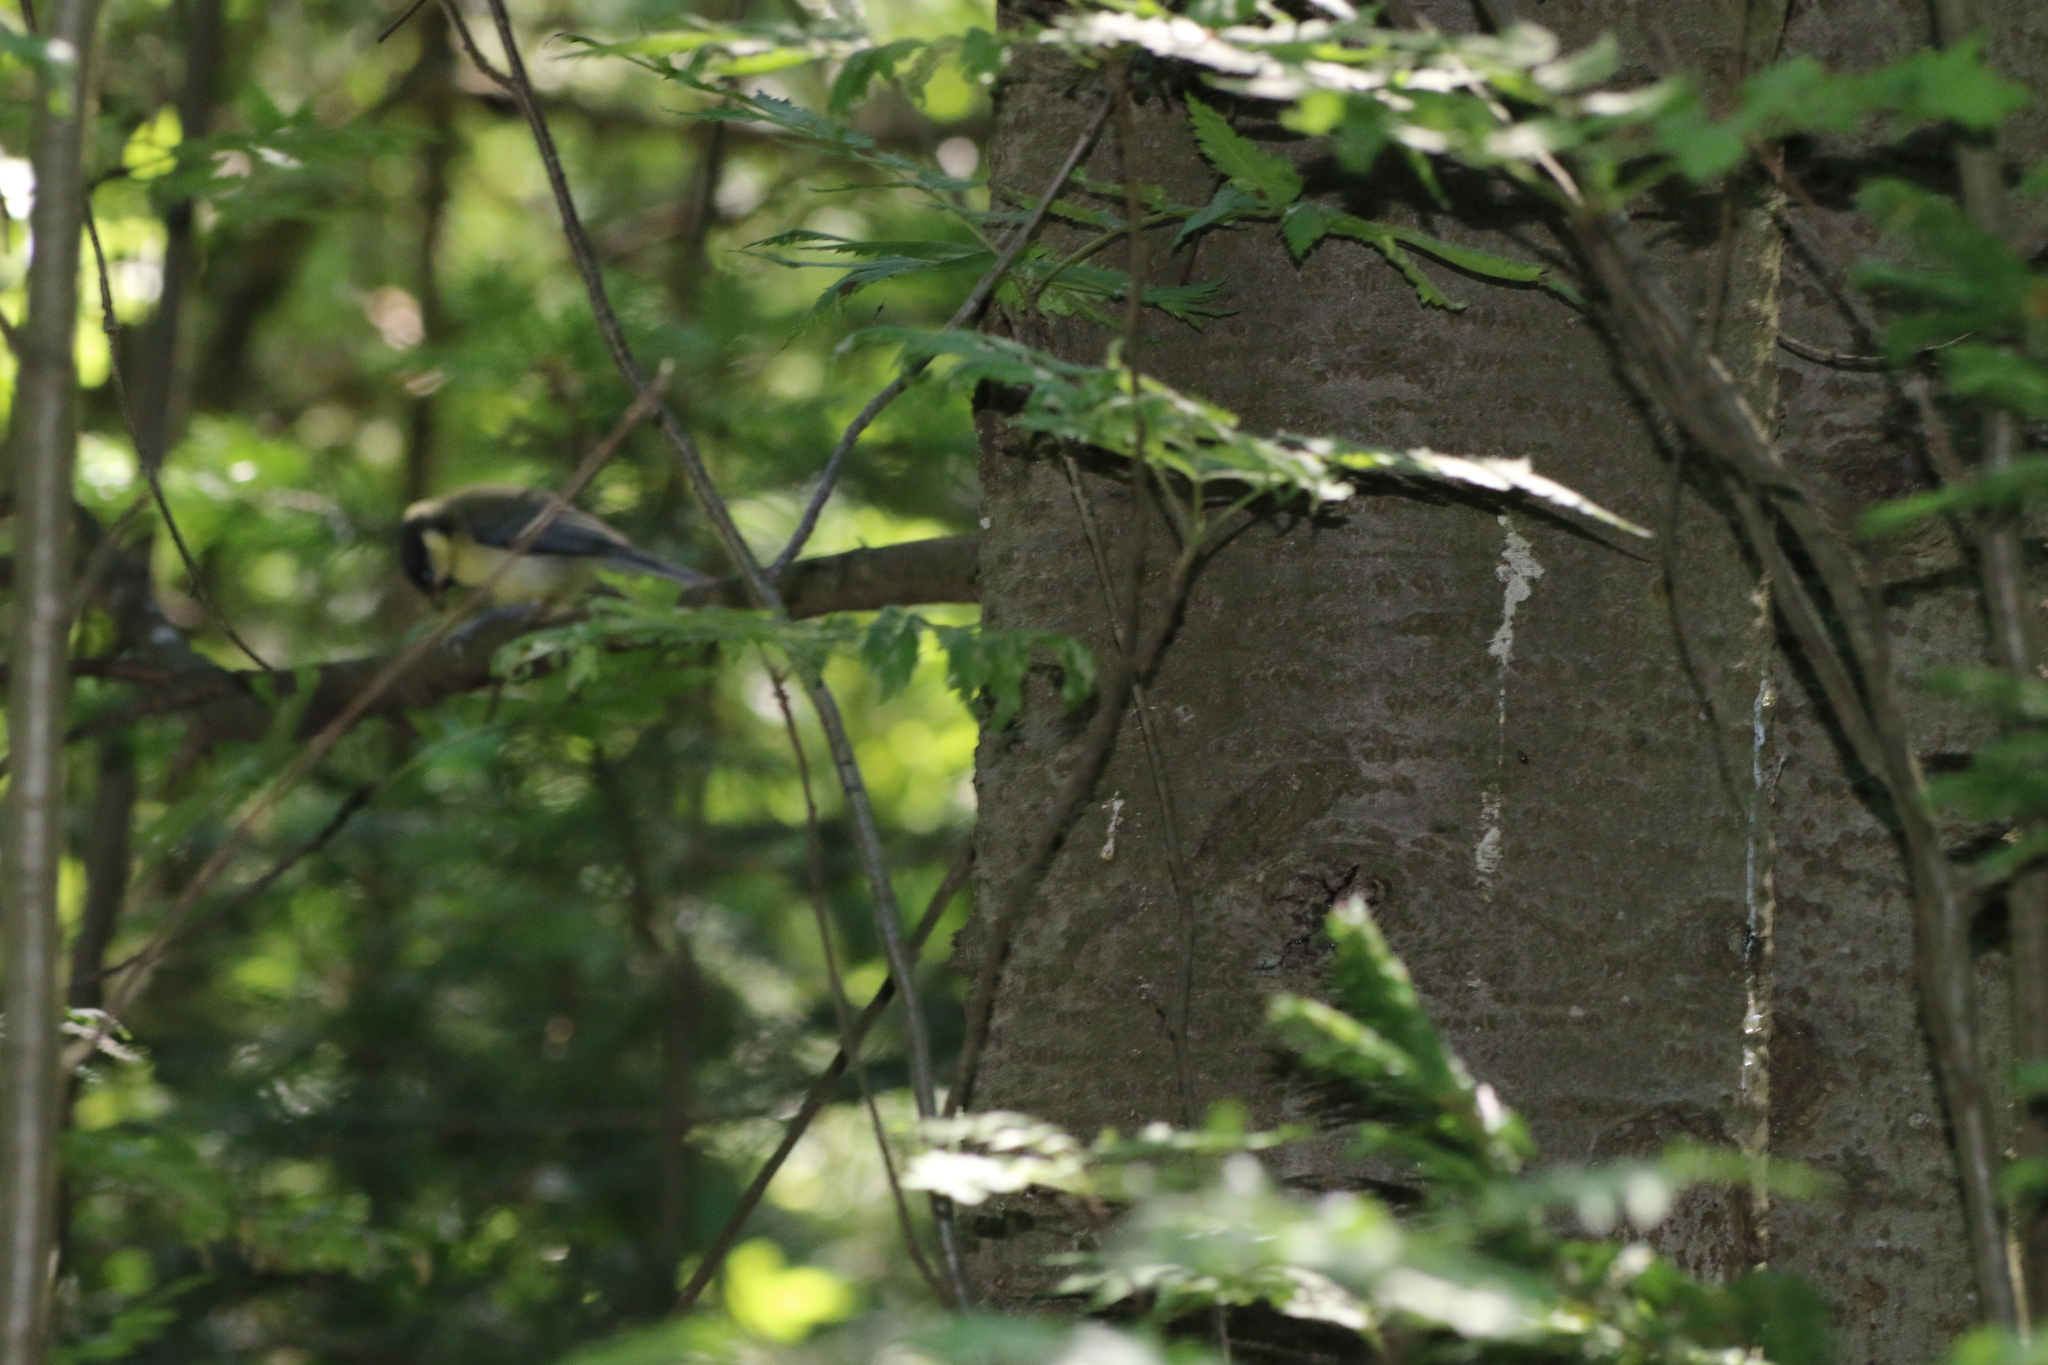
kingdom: Animalia
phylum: Chordata
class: Aves
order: Passeriformes
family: Paridae
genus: Parus
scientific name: Parus major
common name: Great tit
